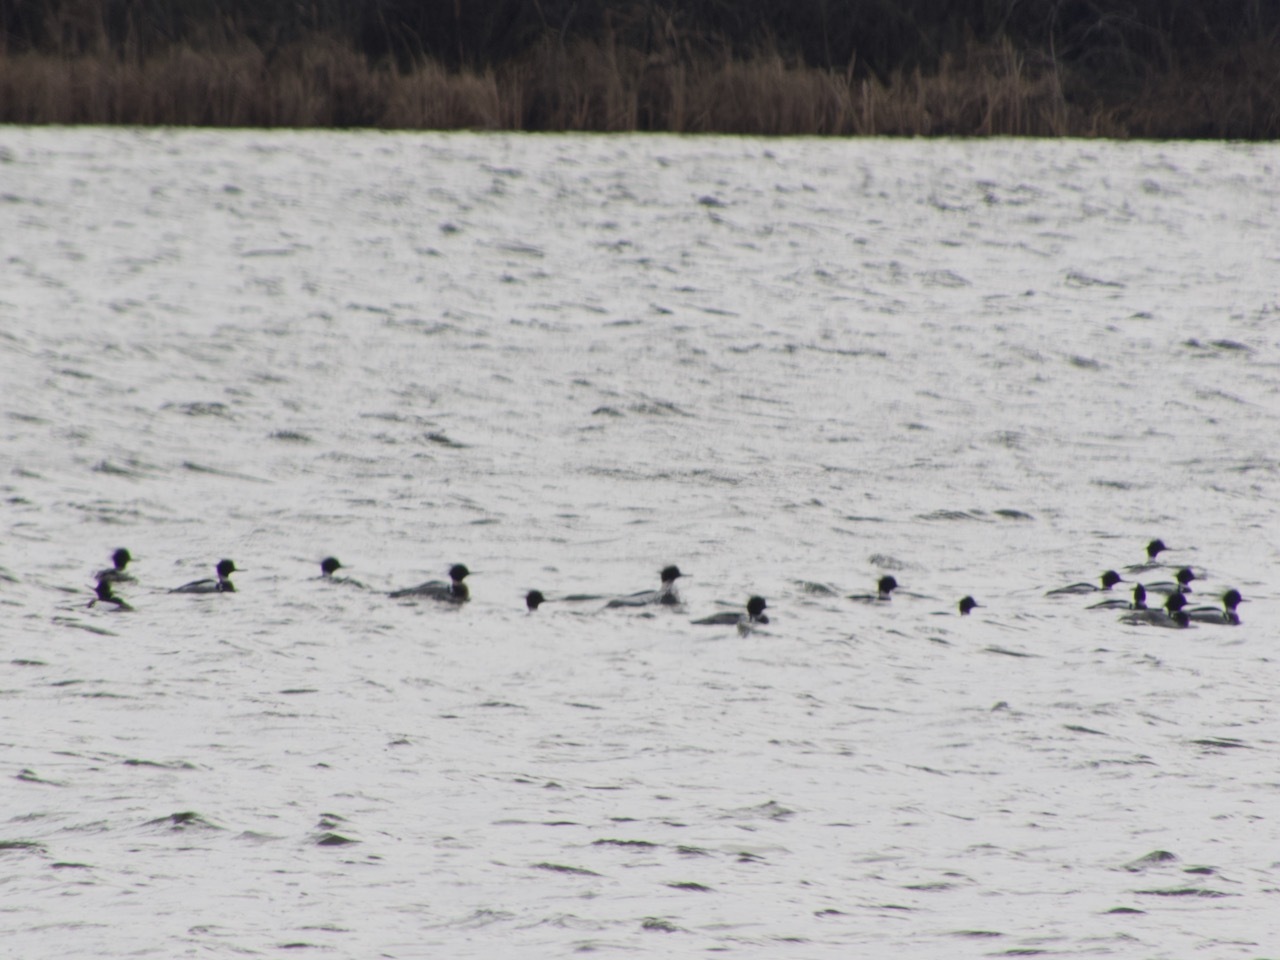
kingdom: Animalia
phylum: Chordata
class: Aves
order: Anseriformes
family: Anatidae
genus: Mergus
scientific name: Mergus serrator
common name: Red-breasted merganser
